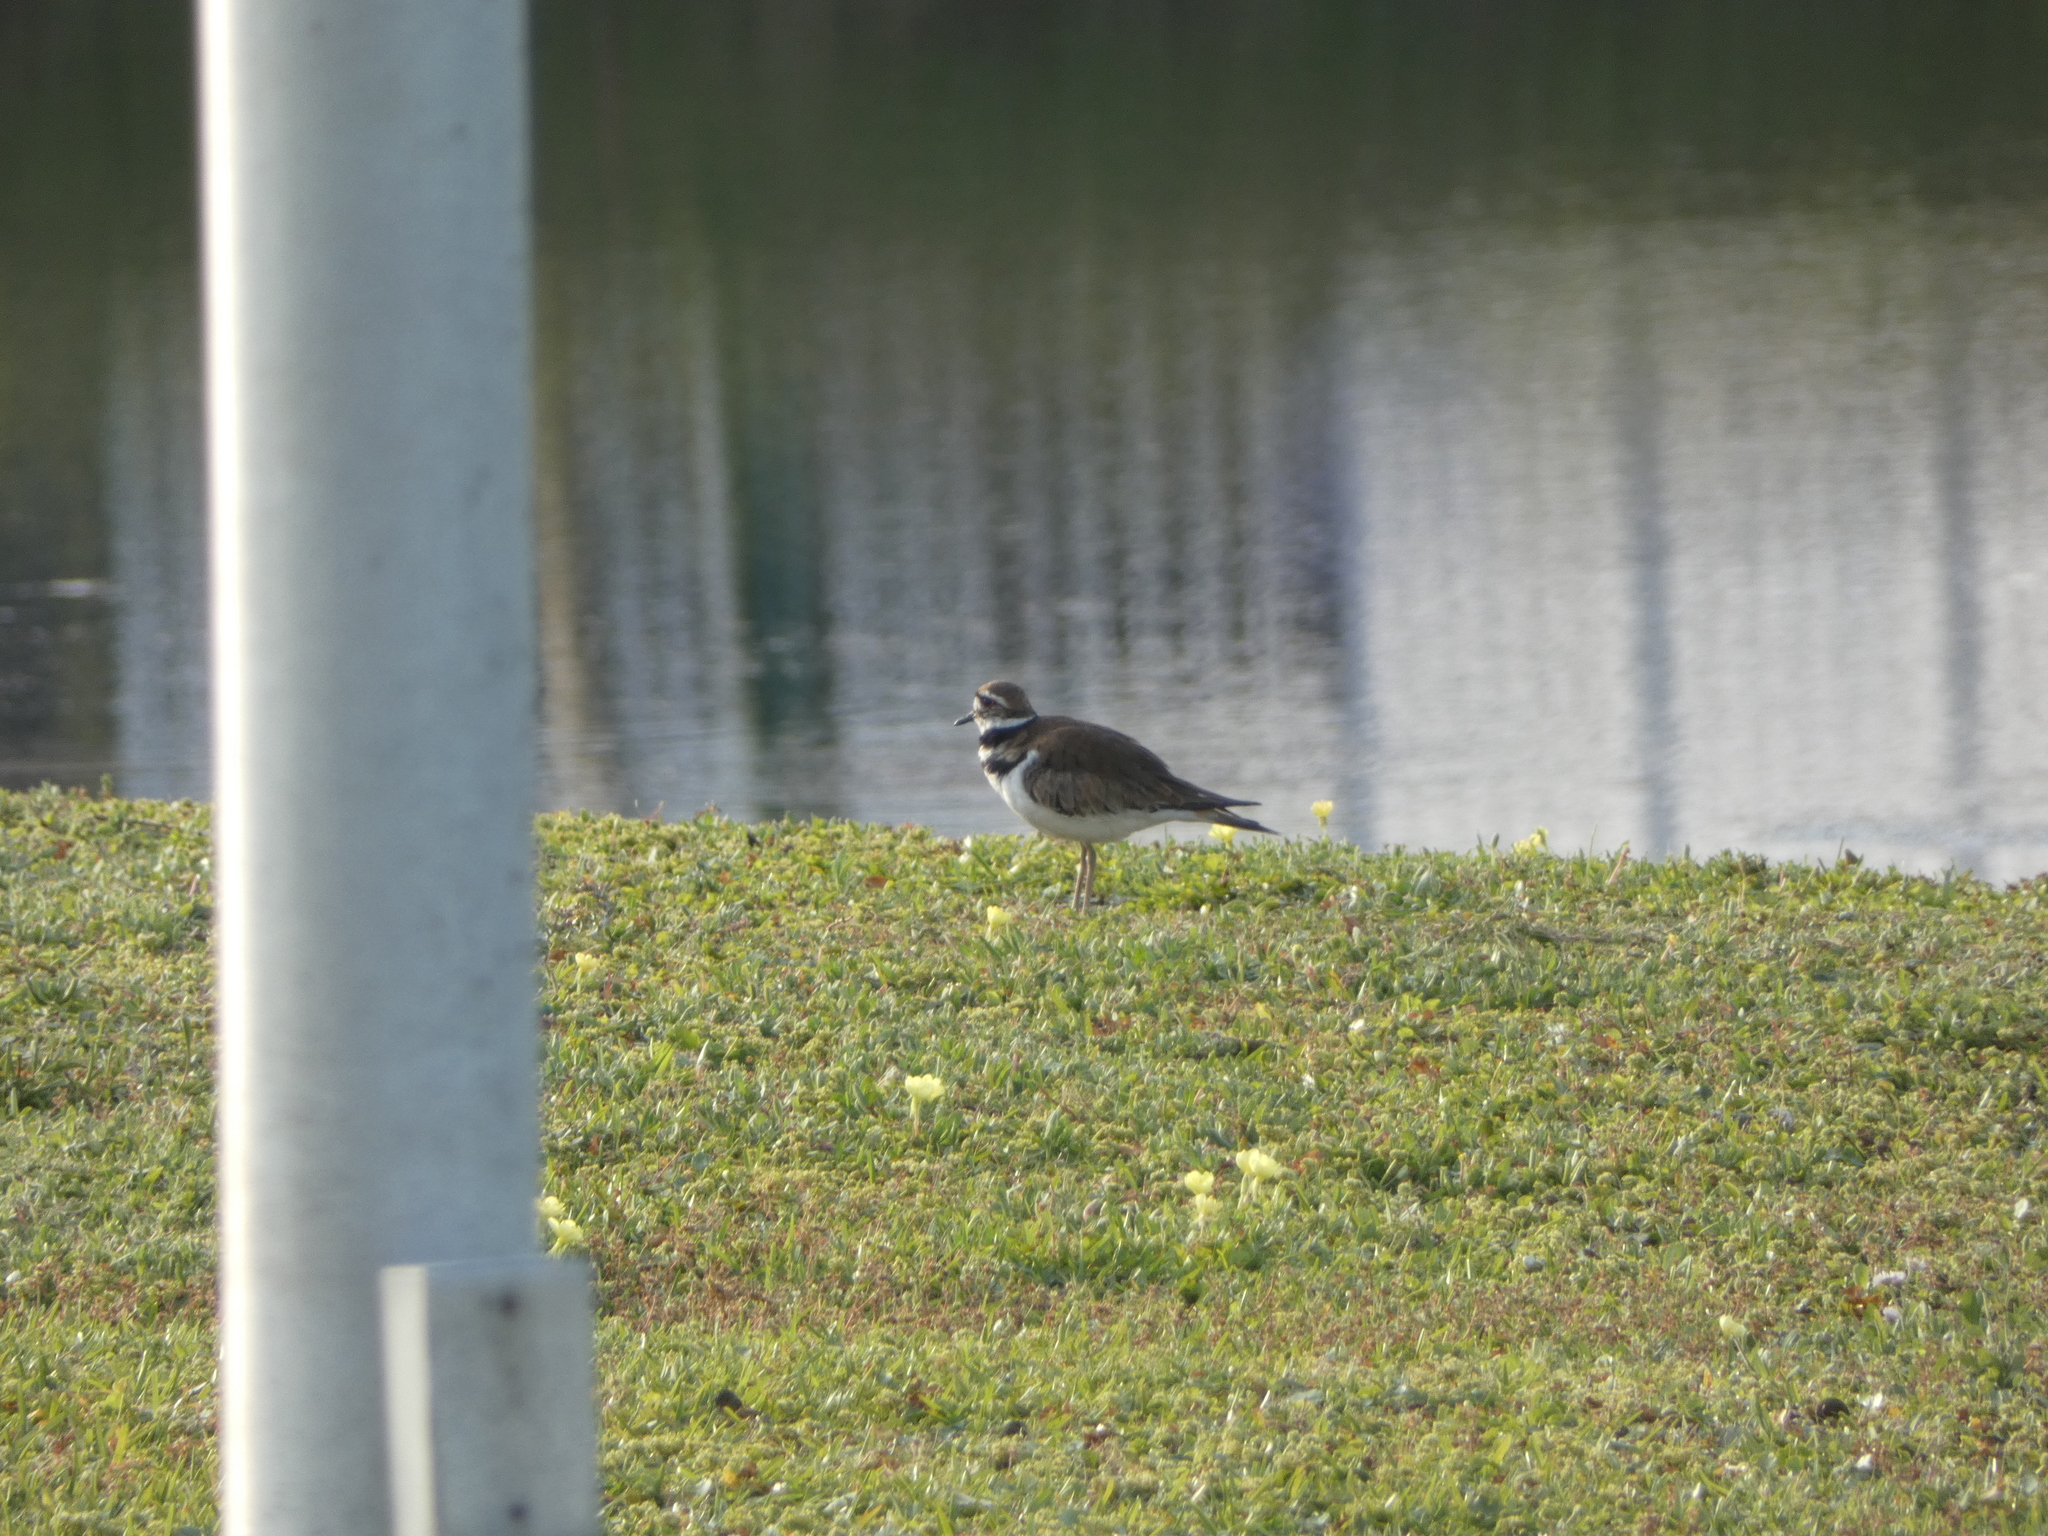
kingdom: Animalia
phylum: Chordata
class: Aves
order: Charadriiformes
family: Charadriidae
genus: Charadrius
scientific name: Charadrius vociferus
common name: Killdeer
